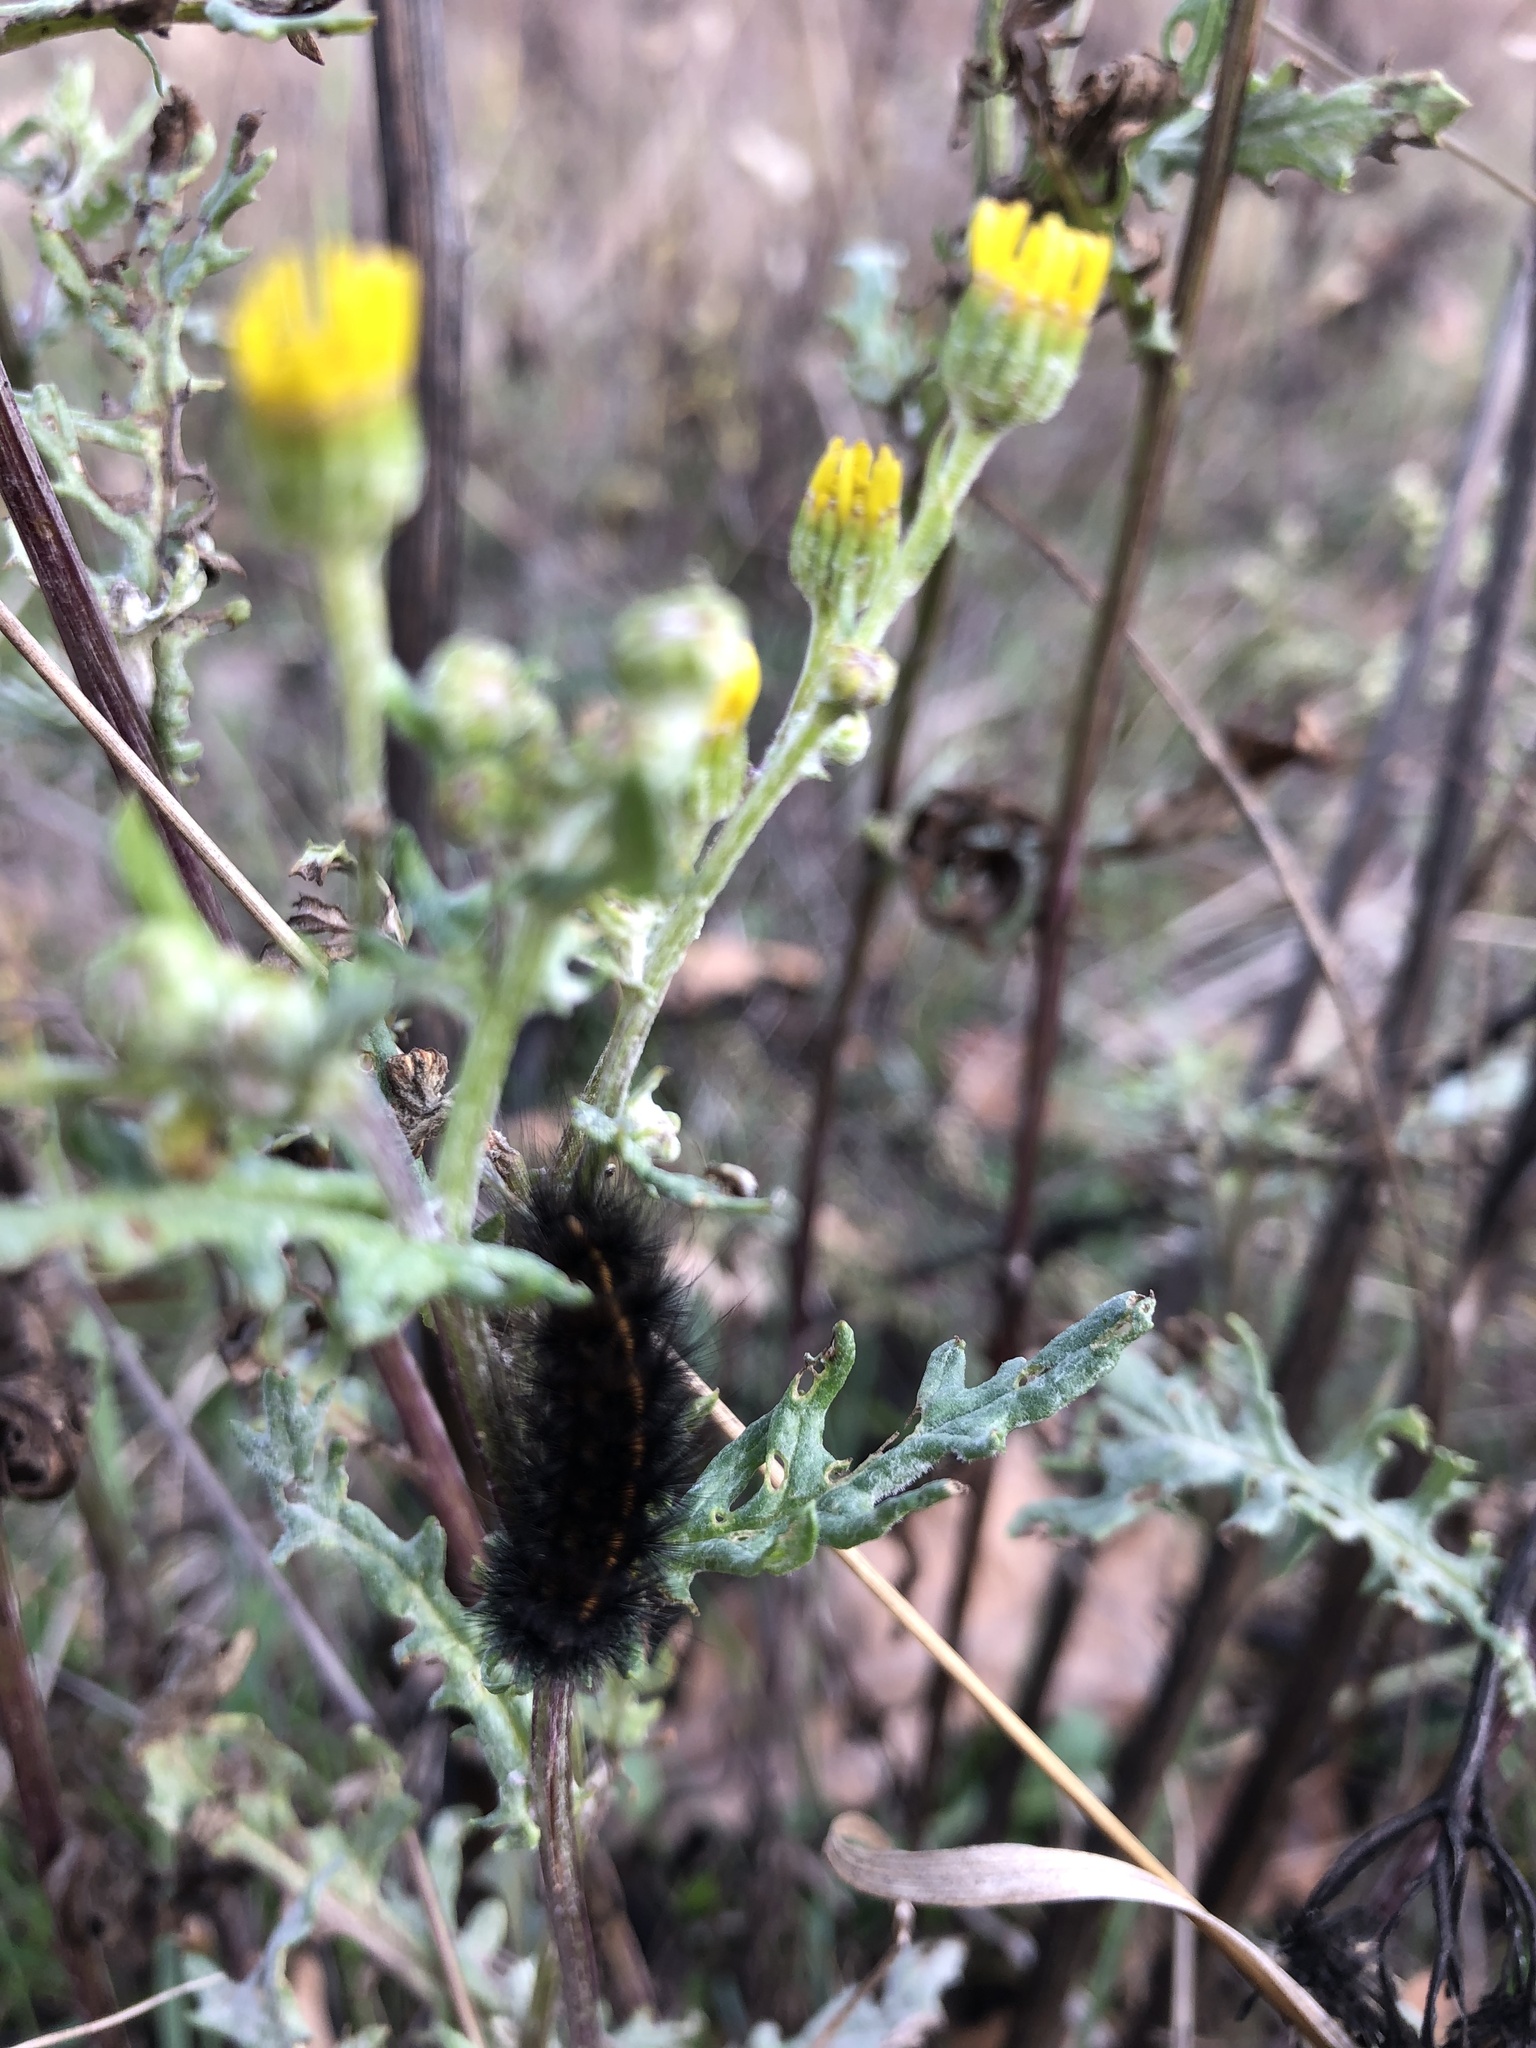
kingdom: Animalia
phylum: Arthropoda
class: Insecta
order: Lepidoptera
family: Erebidae
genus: Spilosoma
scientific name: Spilosoma lubricipeda
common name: White ermine
